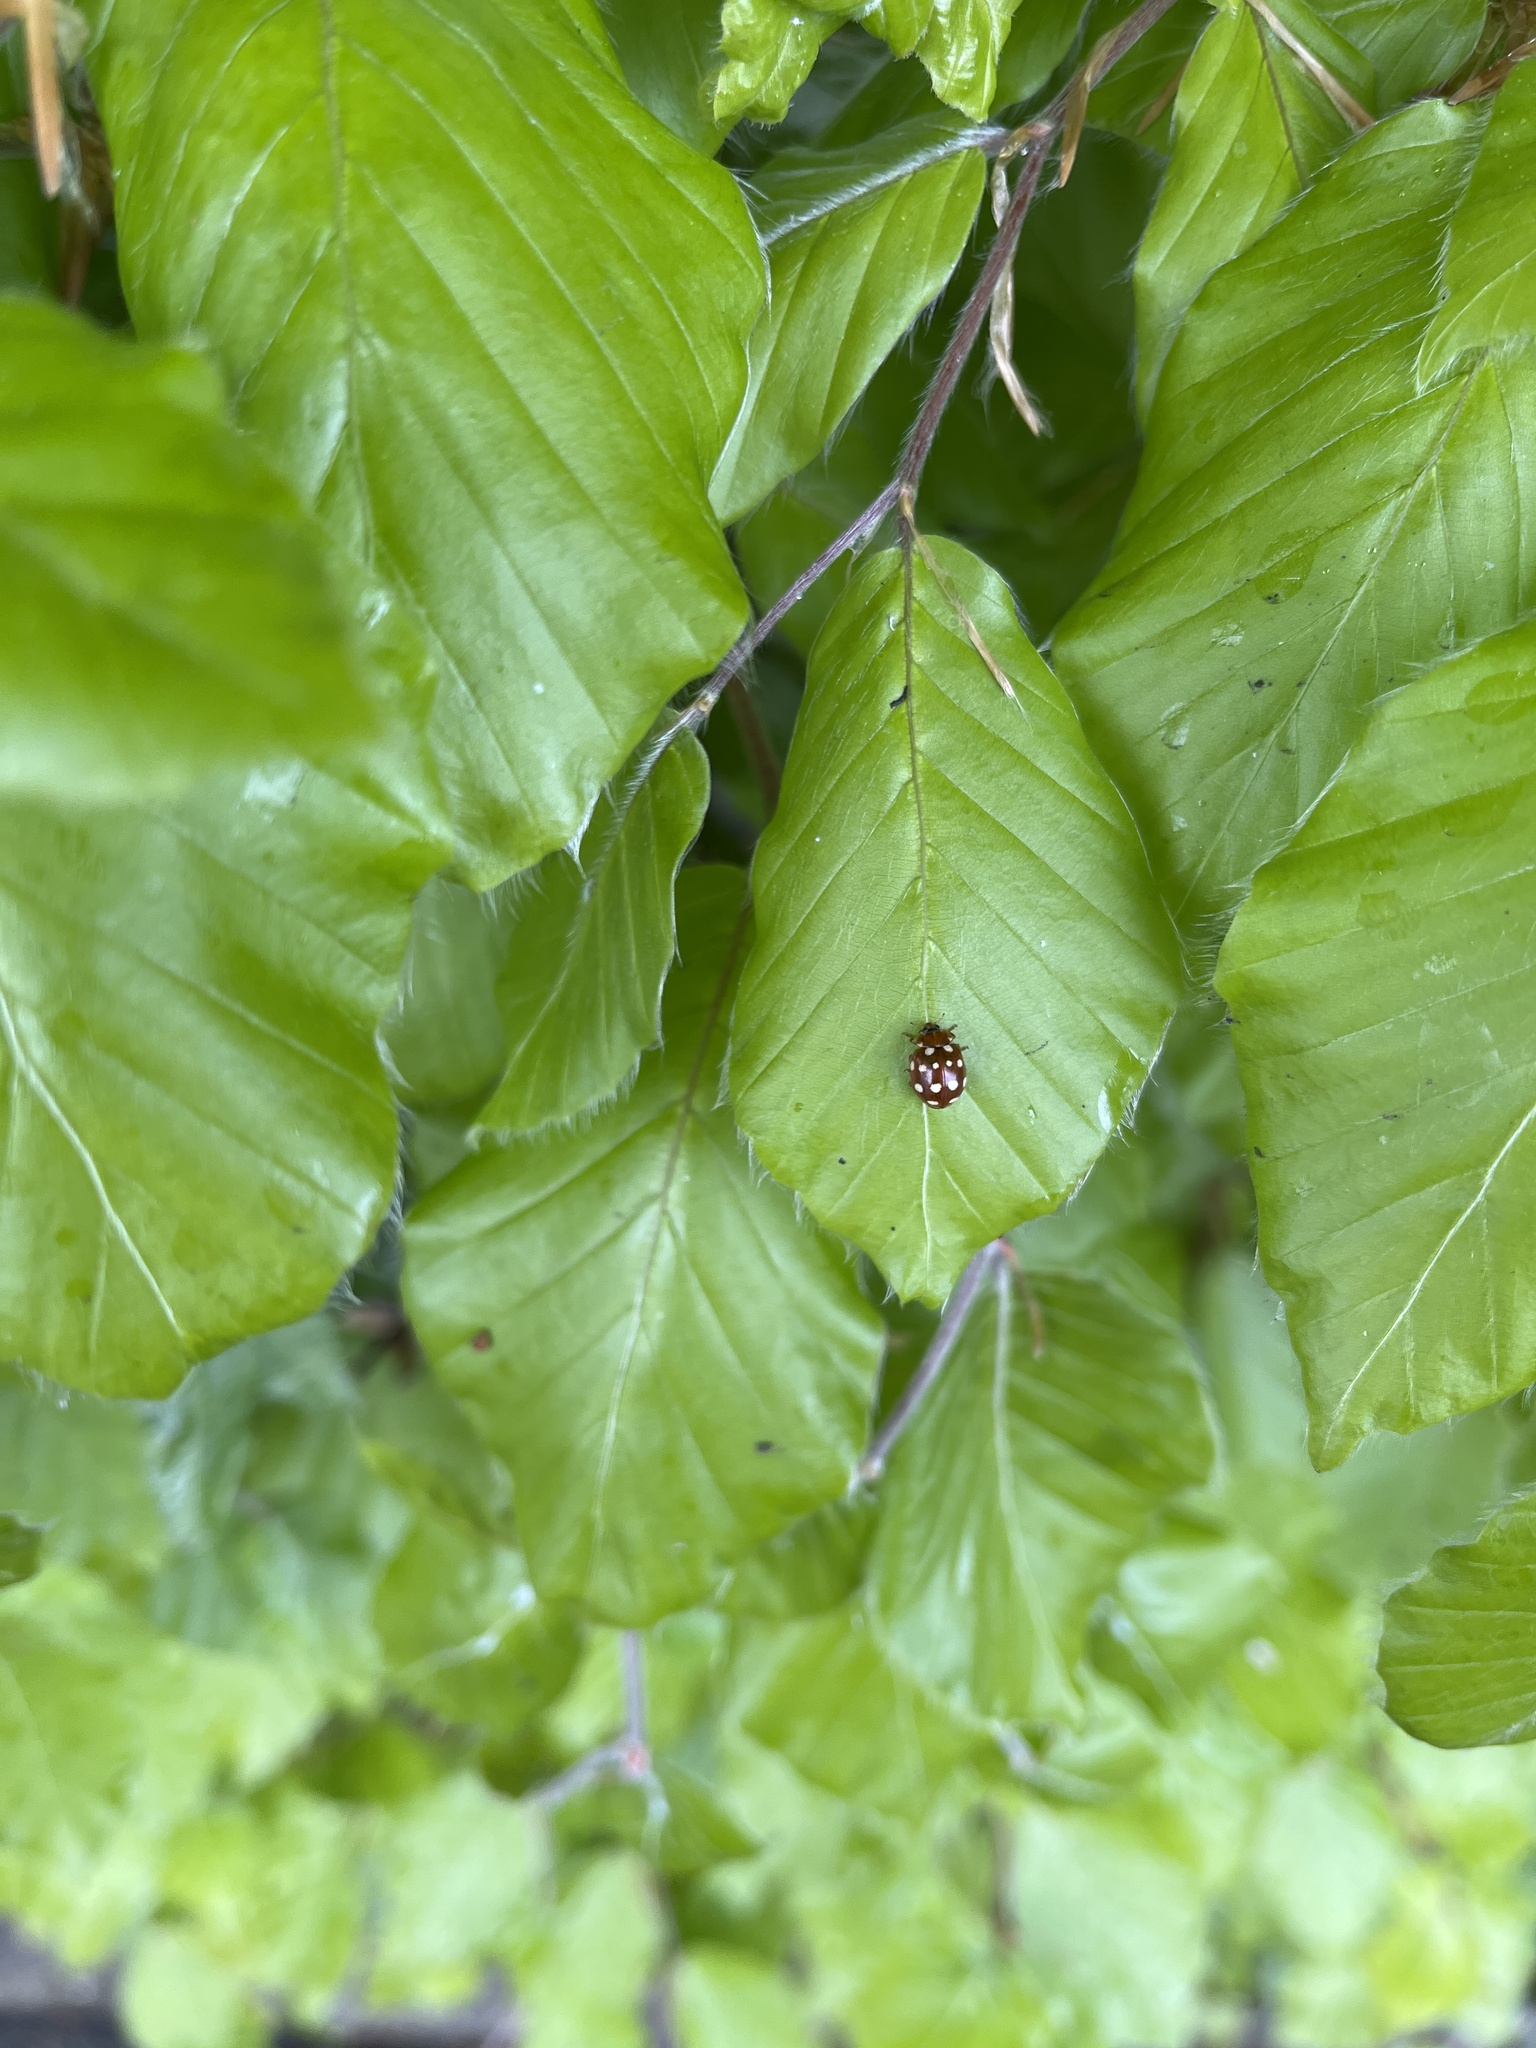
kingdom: Animalia
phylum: Arthropoda
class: Insecta
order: Coleoptera
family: Coccinellidae
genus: Calvia
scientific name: Calvia quatuordecimguttata
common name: Cream-spot ladybird
